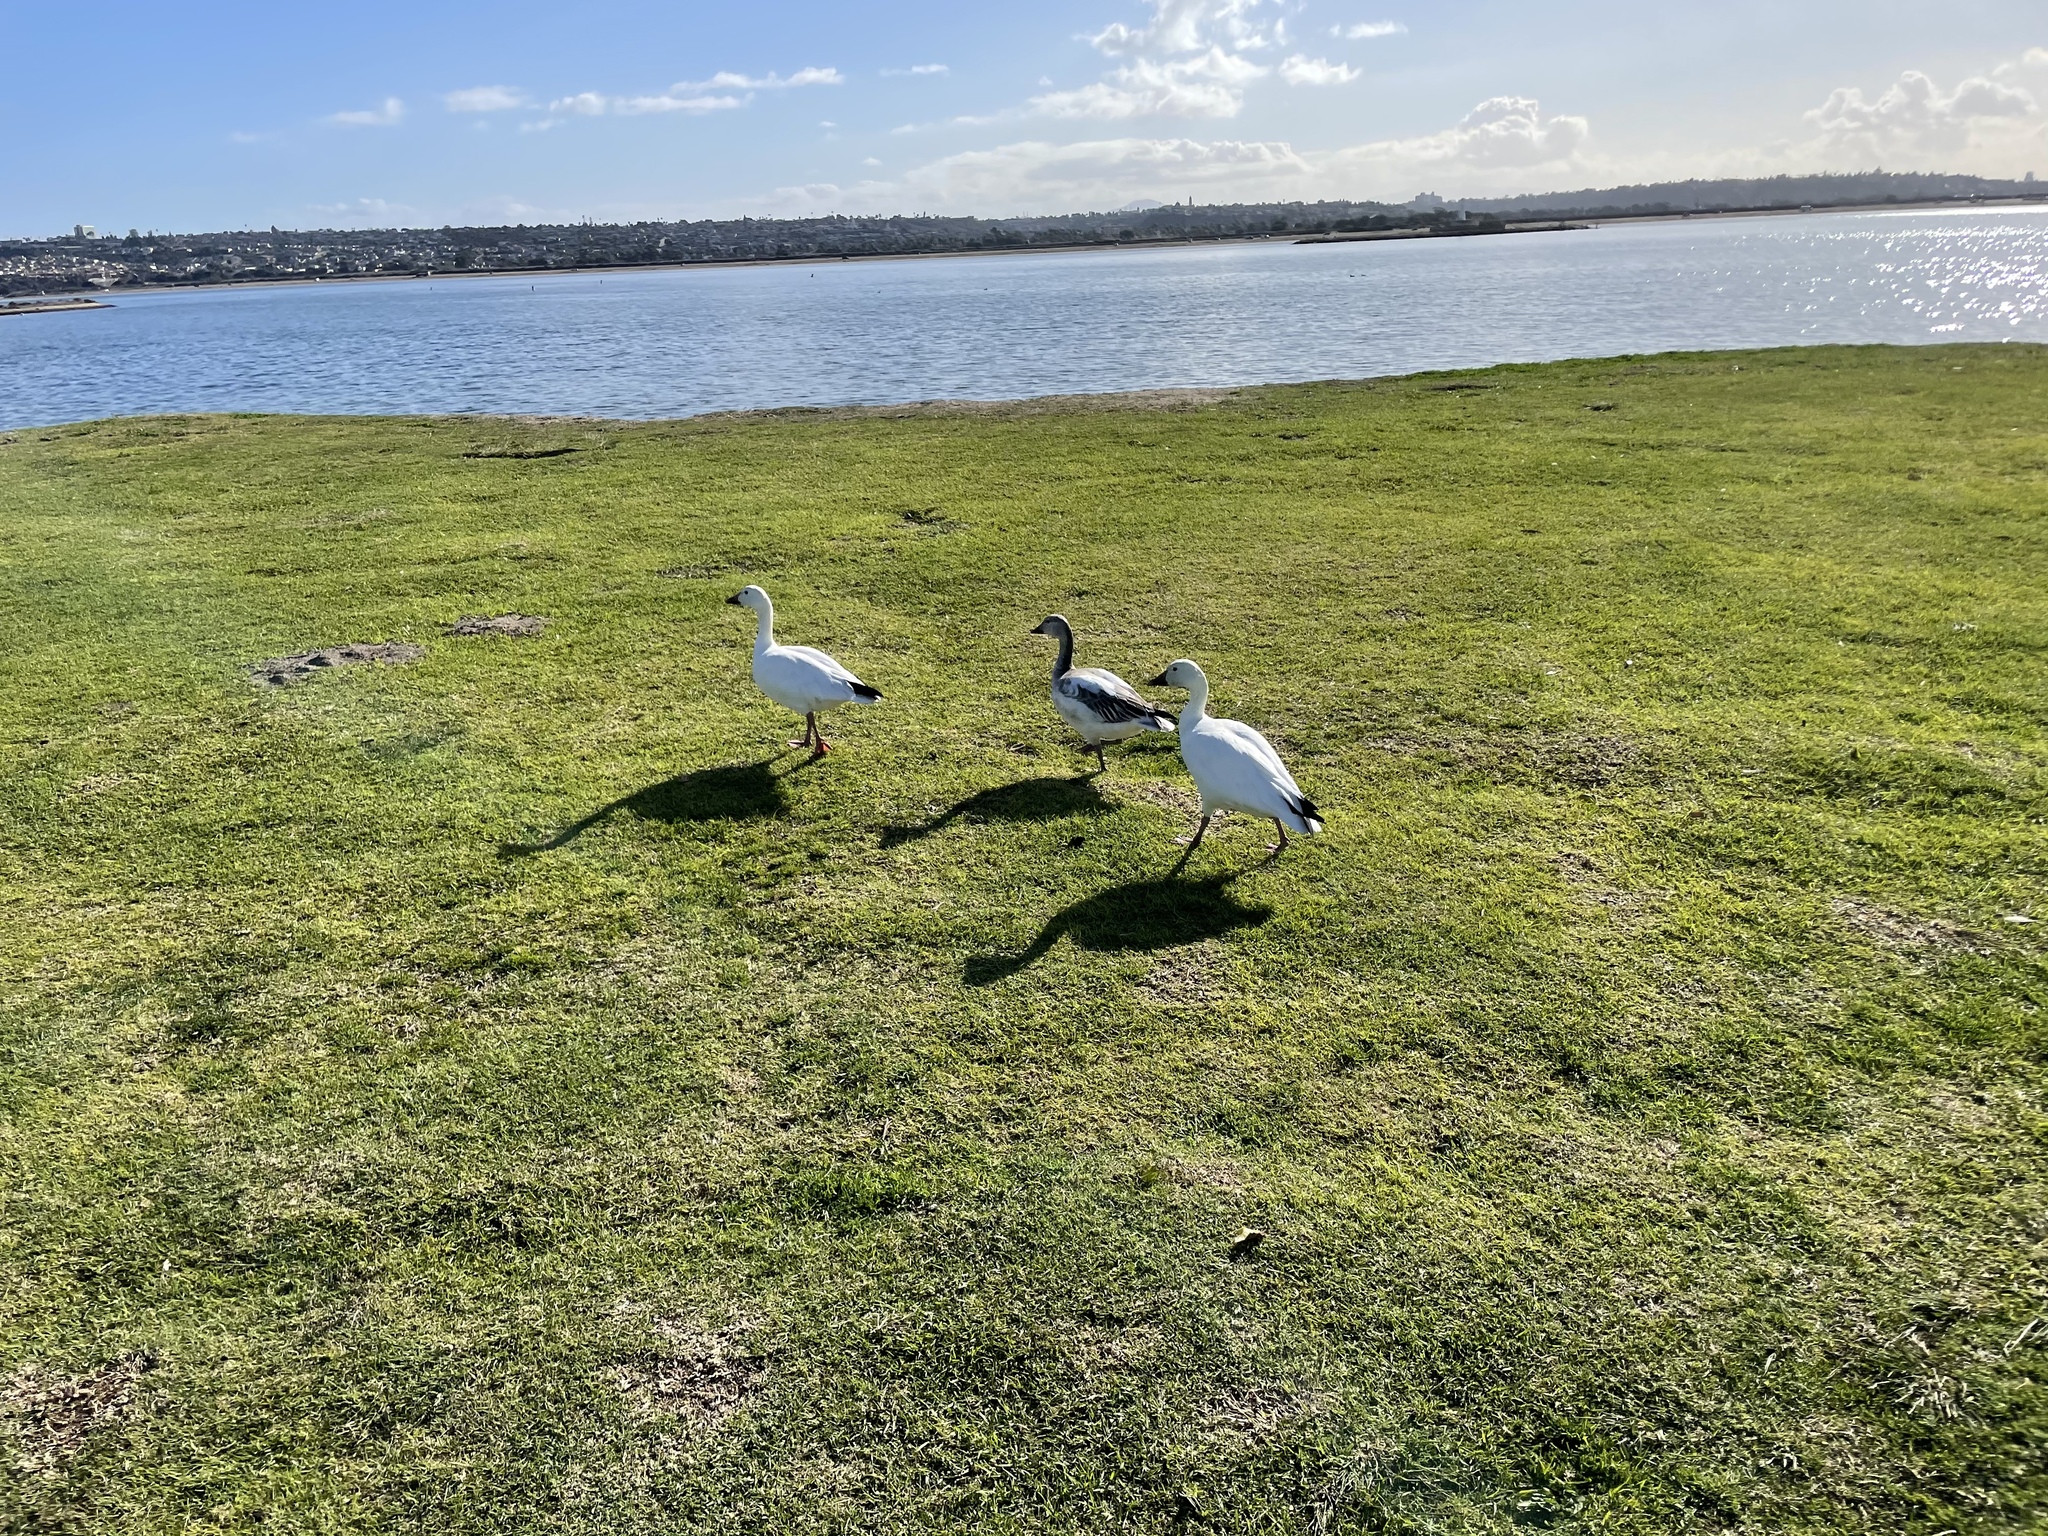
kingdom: Animalia
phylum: Chordata
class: Aves
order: Anseriformes
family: Anatidae
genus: Anser
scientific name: Anser caerulescens
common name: Snow goose
